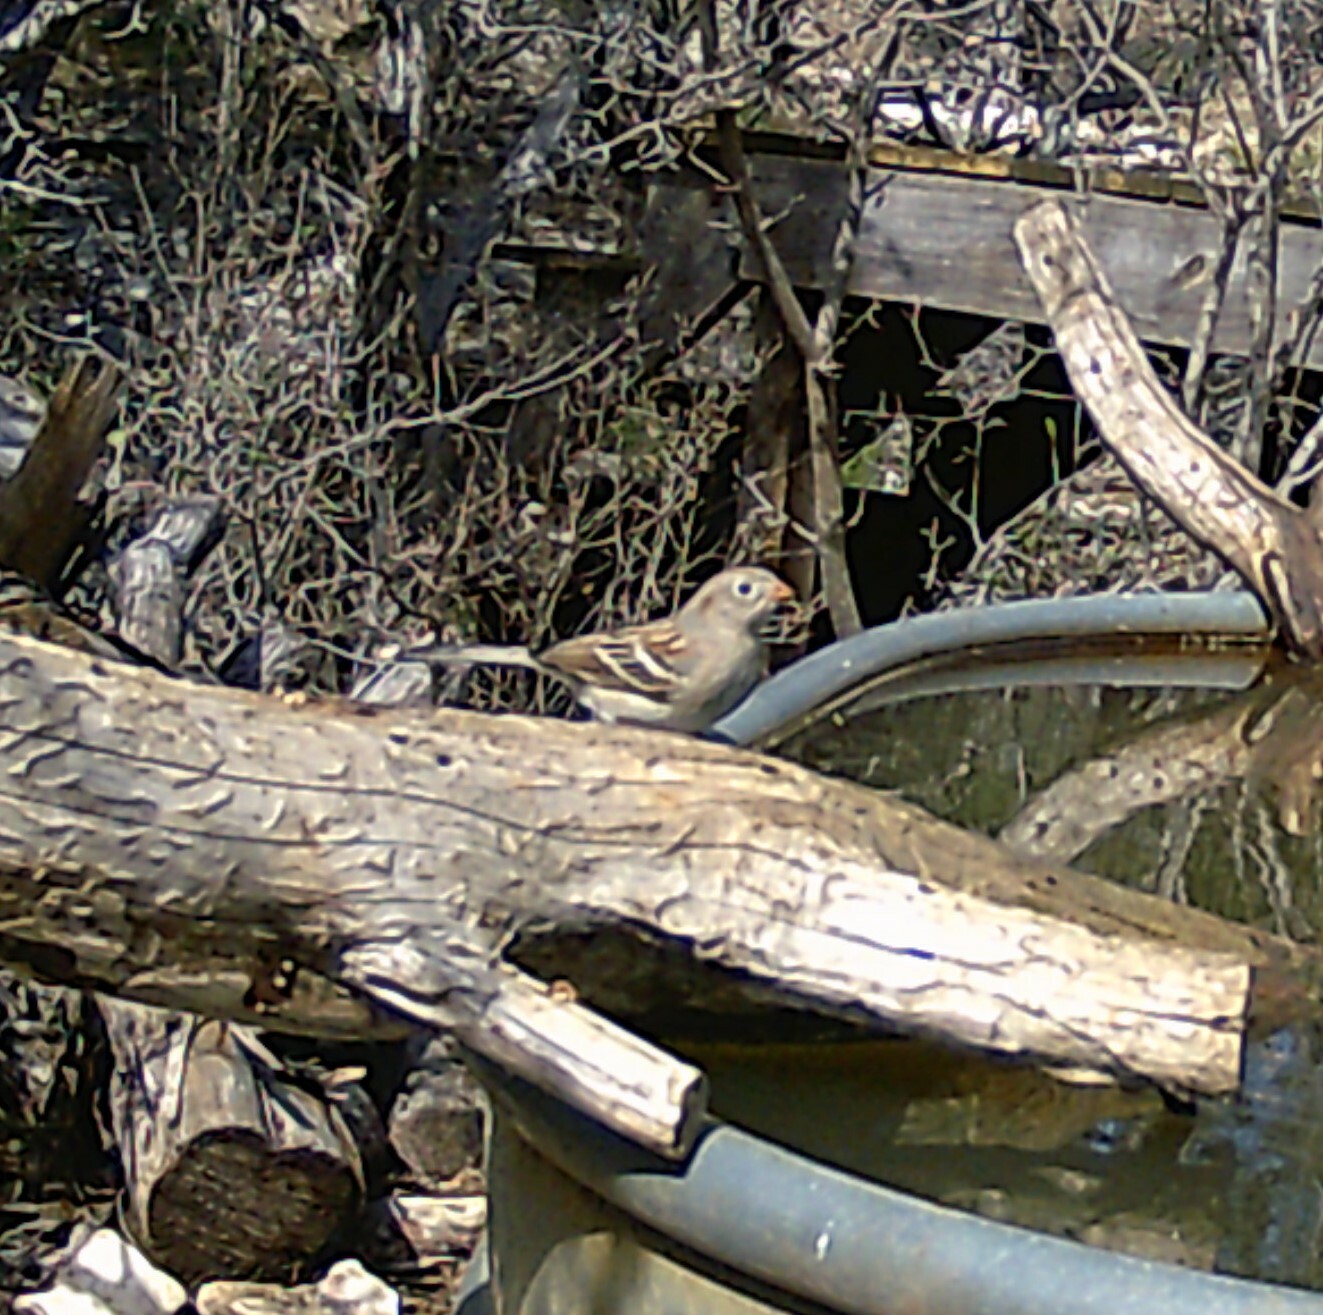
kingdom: Animalia
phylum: Chordata
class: Aves
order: Passeriformes
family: Passerellidae
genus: Spizella
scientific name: Spizella pusilla
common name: Field sparrow
